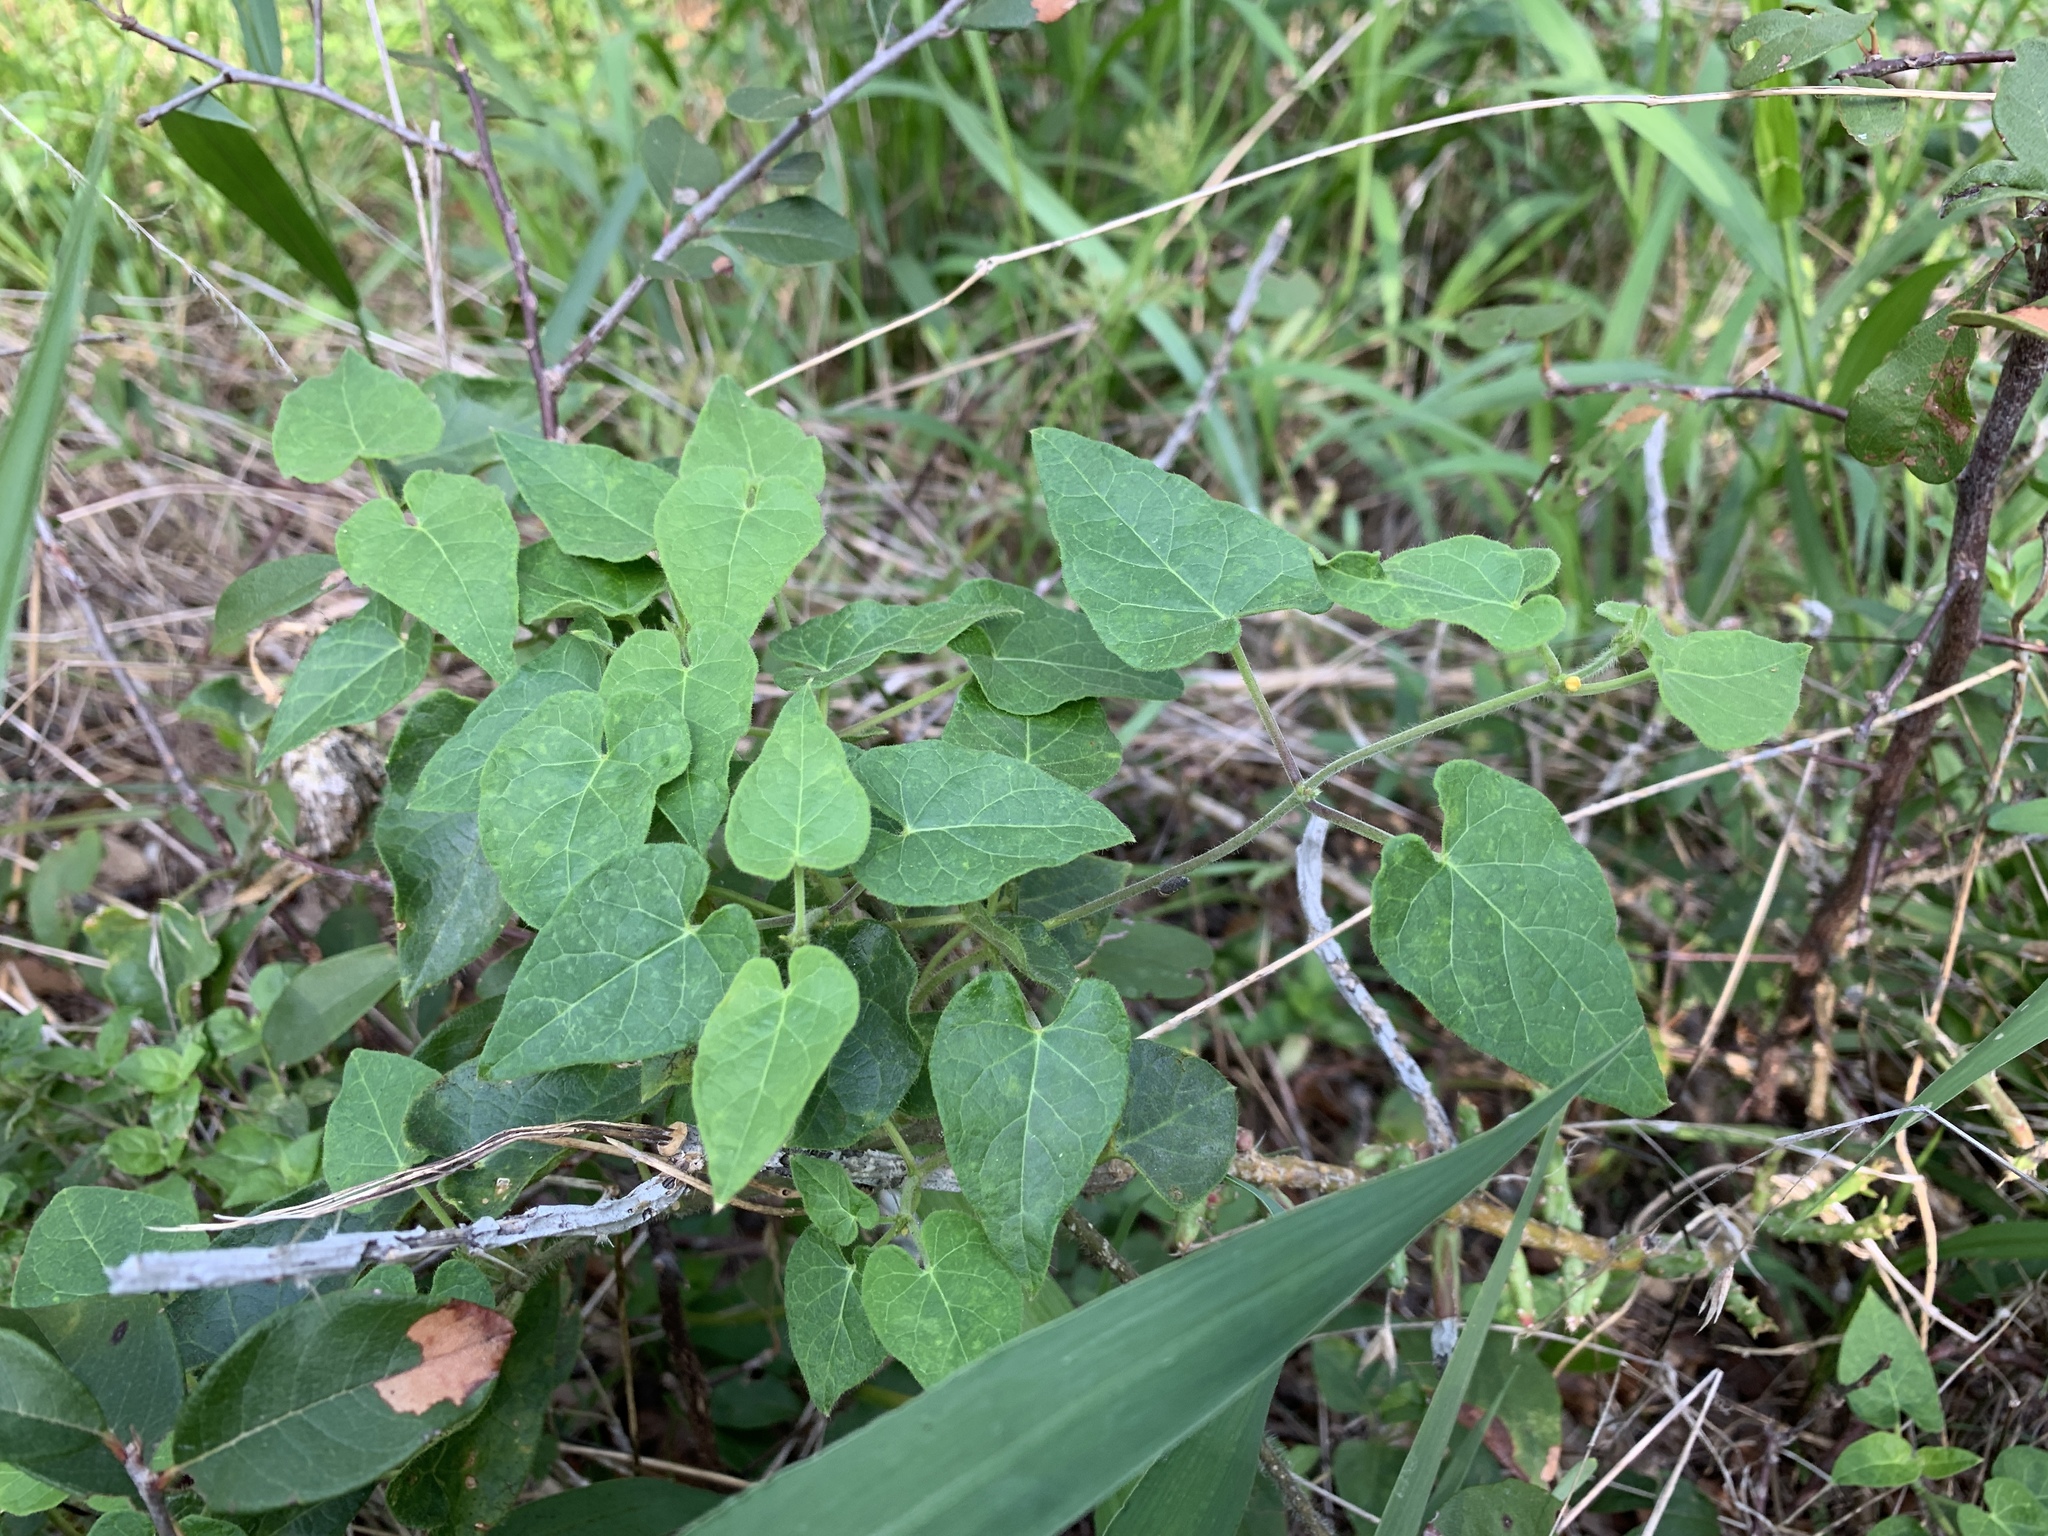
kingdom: Plantae
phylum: Tracheophyta
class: Magnoliopsida
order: Gentianales
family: Apocynaceae
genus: Dictyanthus
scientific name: Dictyanthus reticulatus
